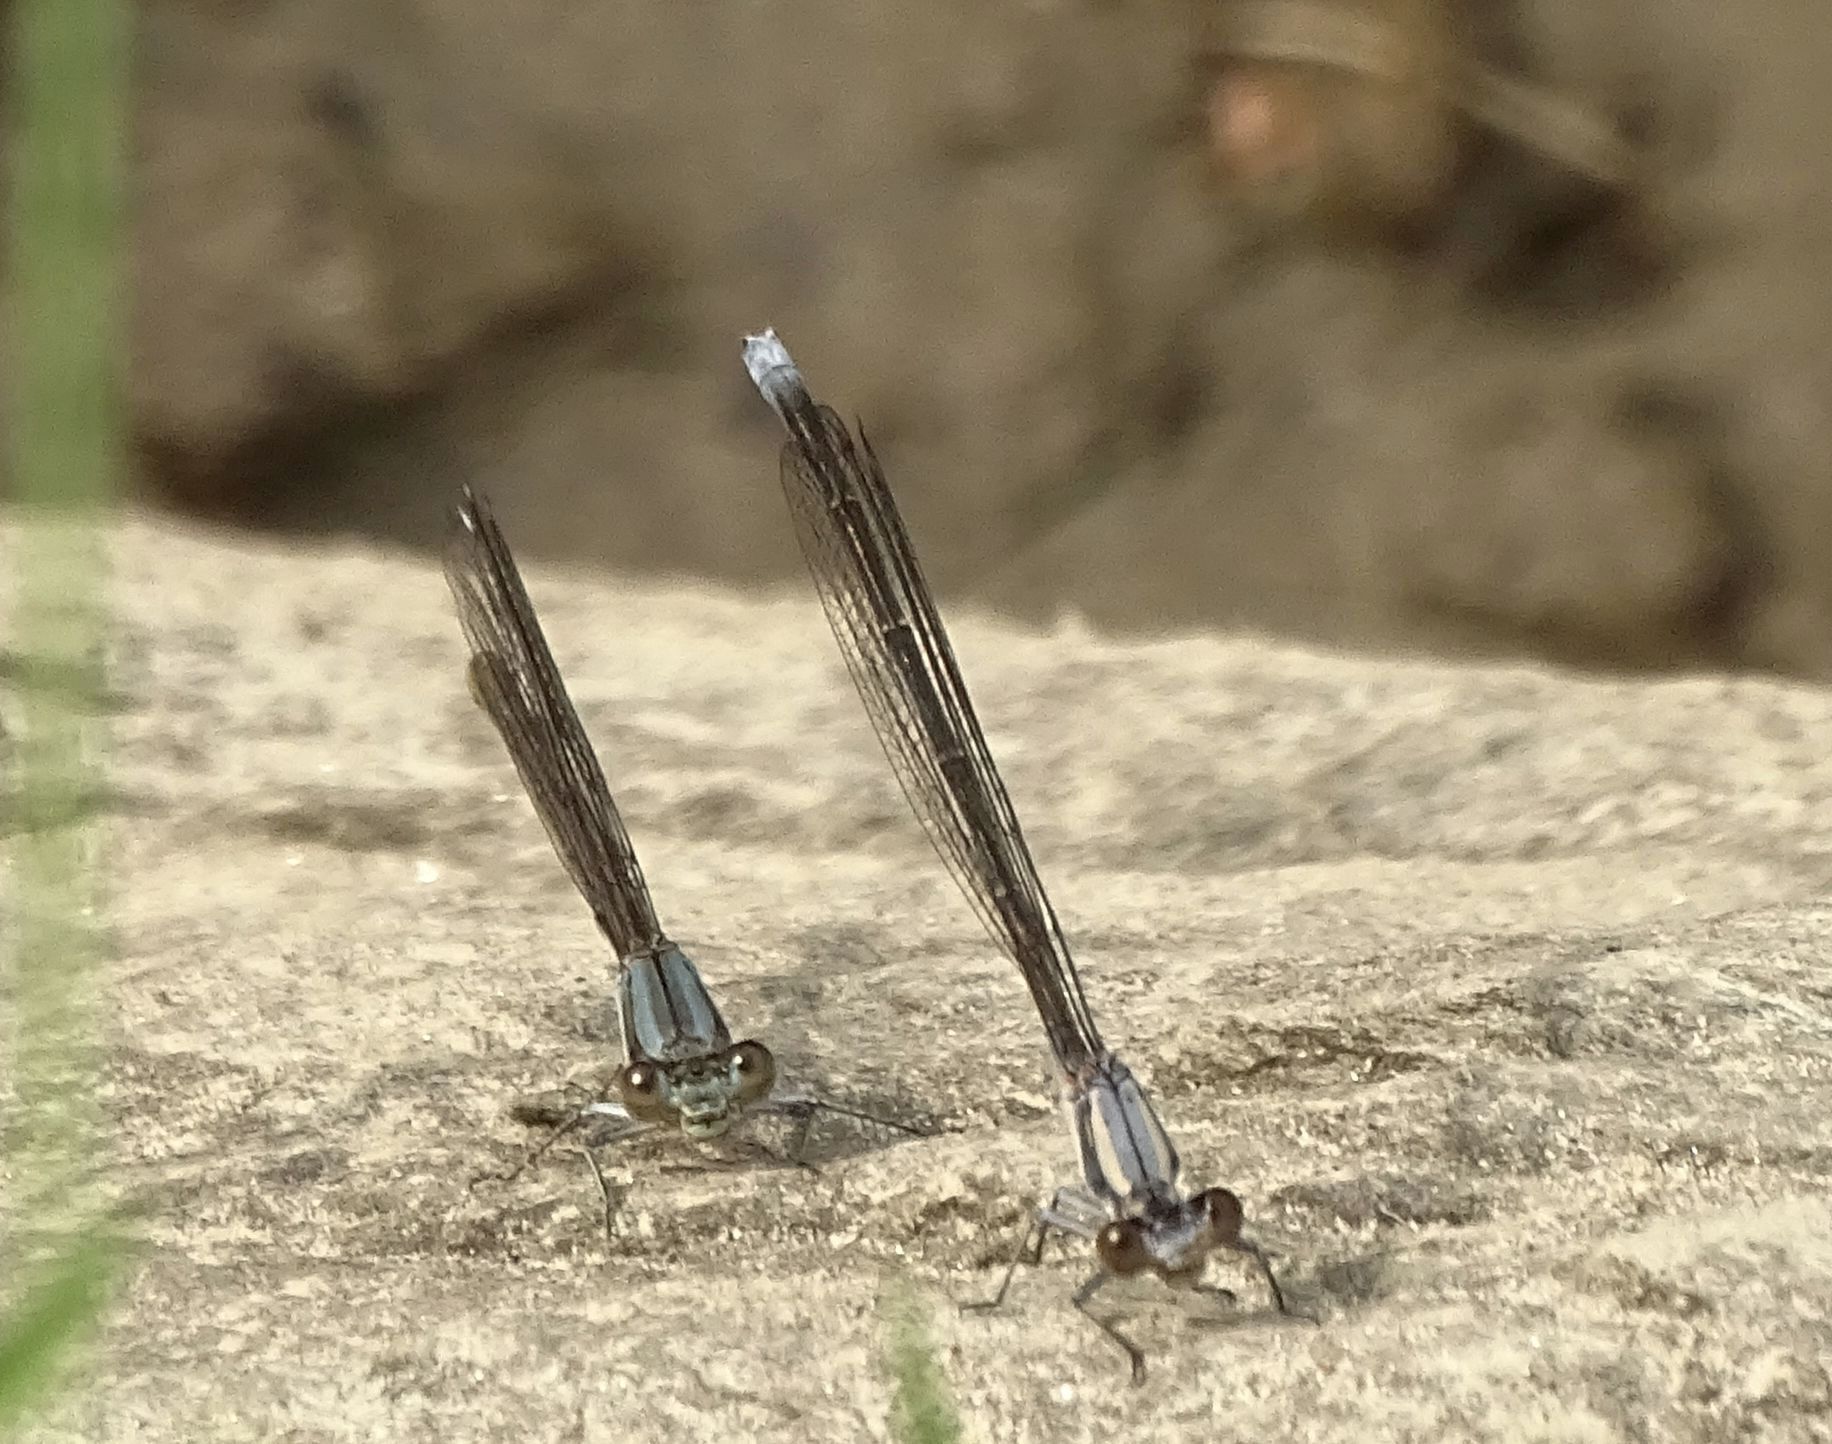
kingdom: Animalia
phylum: Arthropoda
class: Insecta
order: Odonata
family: Coenagrionidae
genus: Argia
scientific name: Argia moesta
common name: Powdered dancer
